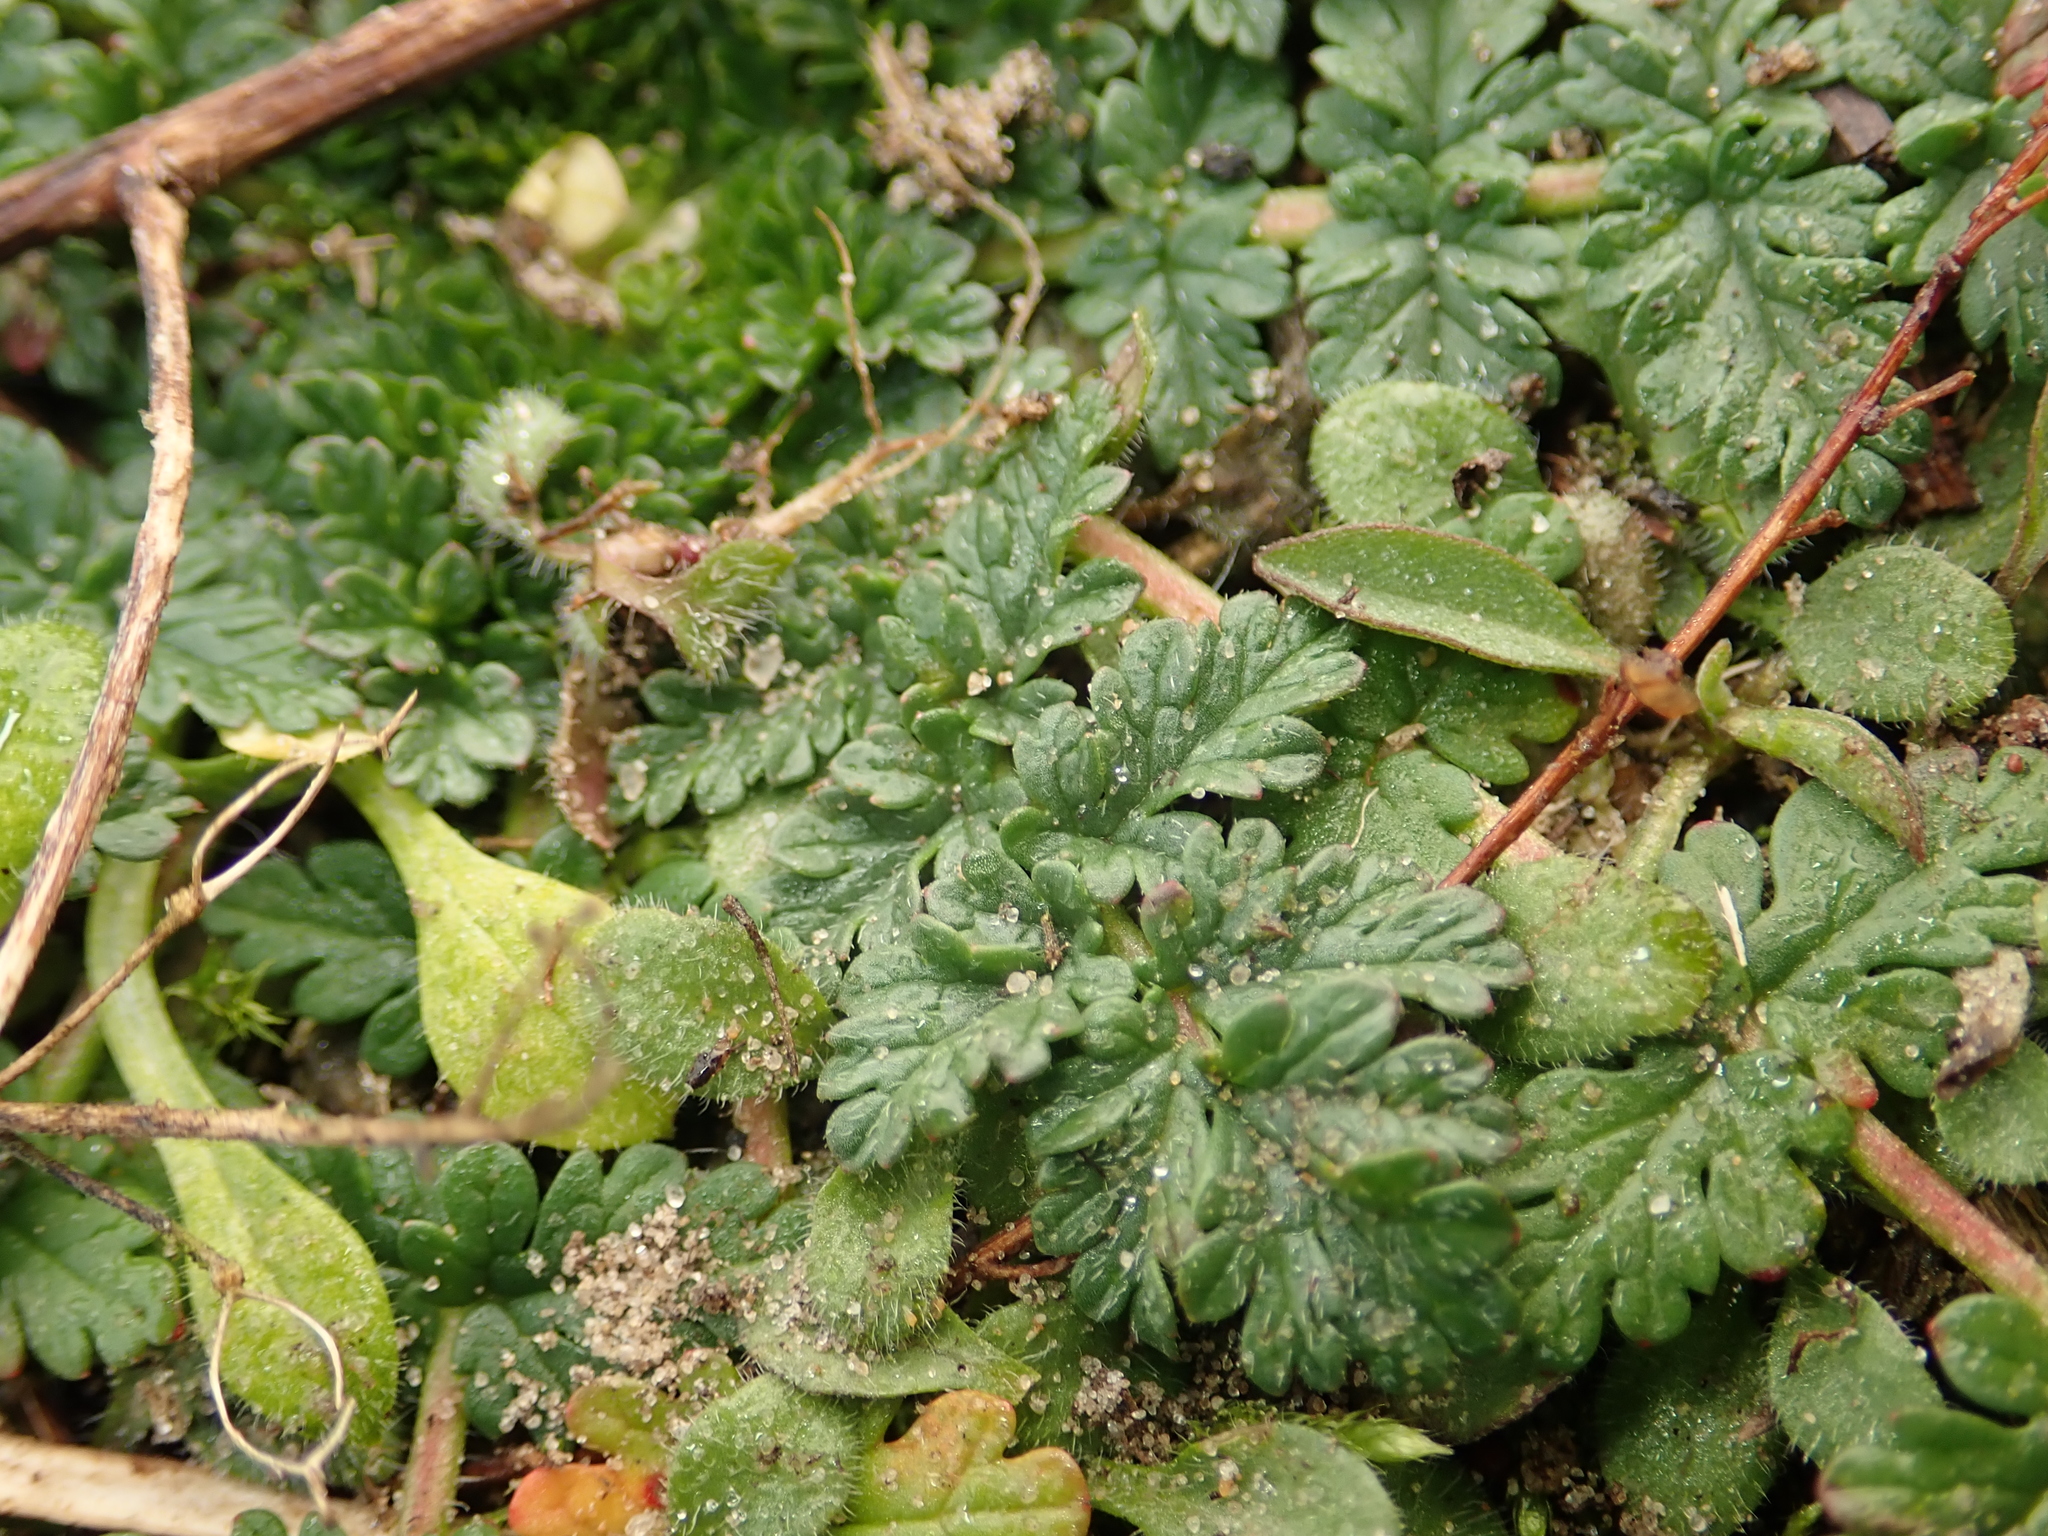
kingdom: Plantae
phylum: Tracheophyta
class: Magnoliopsida
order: Geraniales
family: Geraniaceae
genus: Erodium
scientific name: Erodium cicutarium
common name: Common stork's-bill
